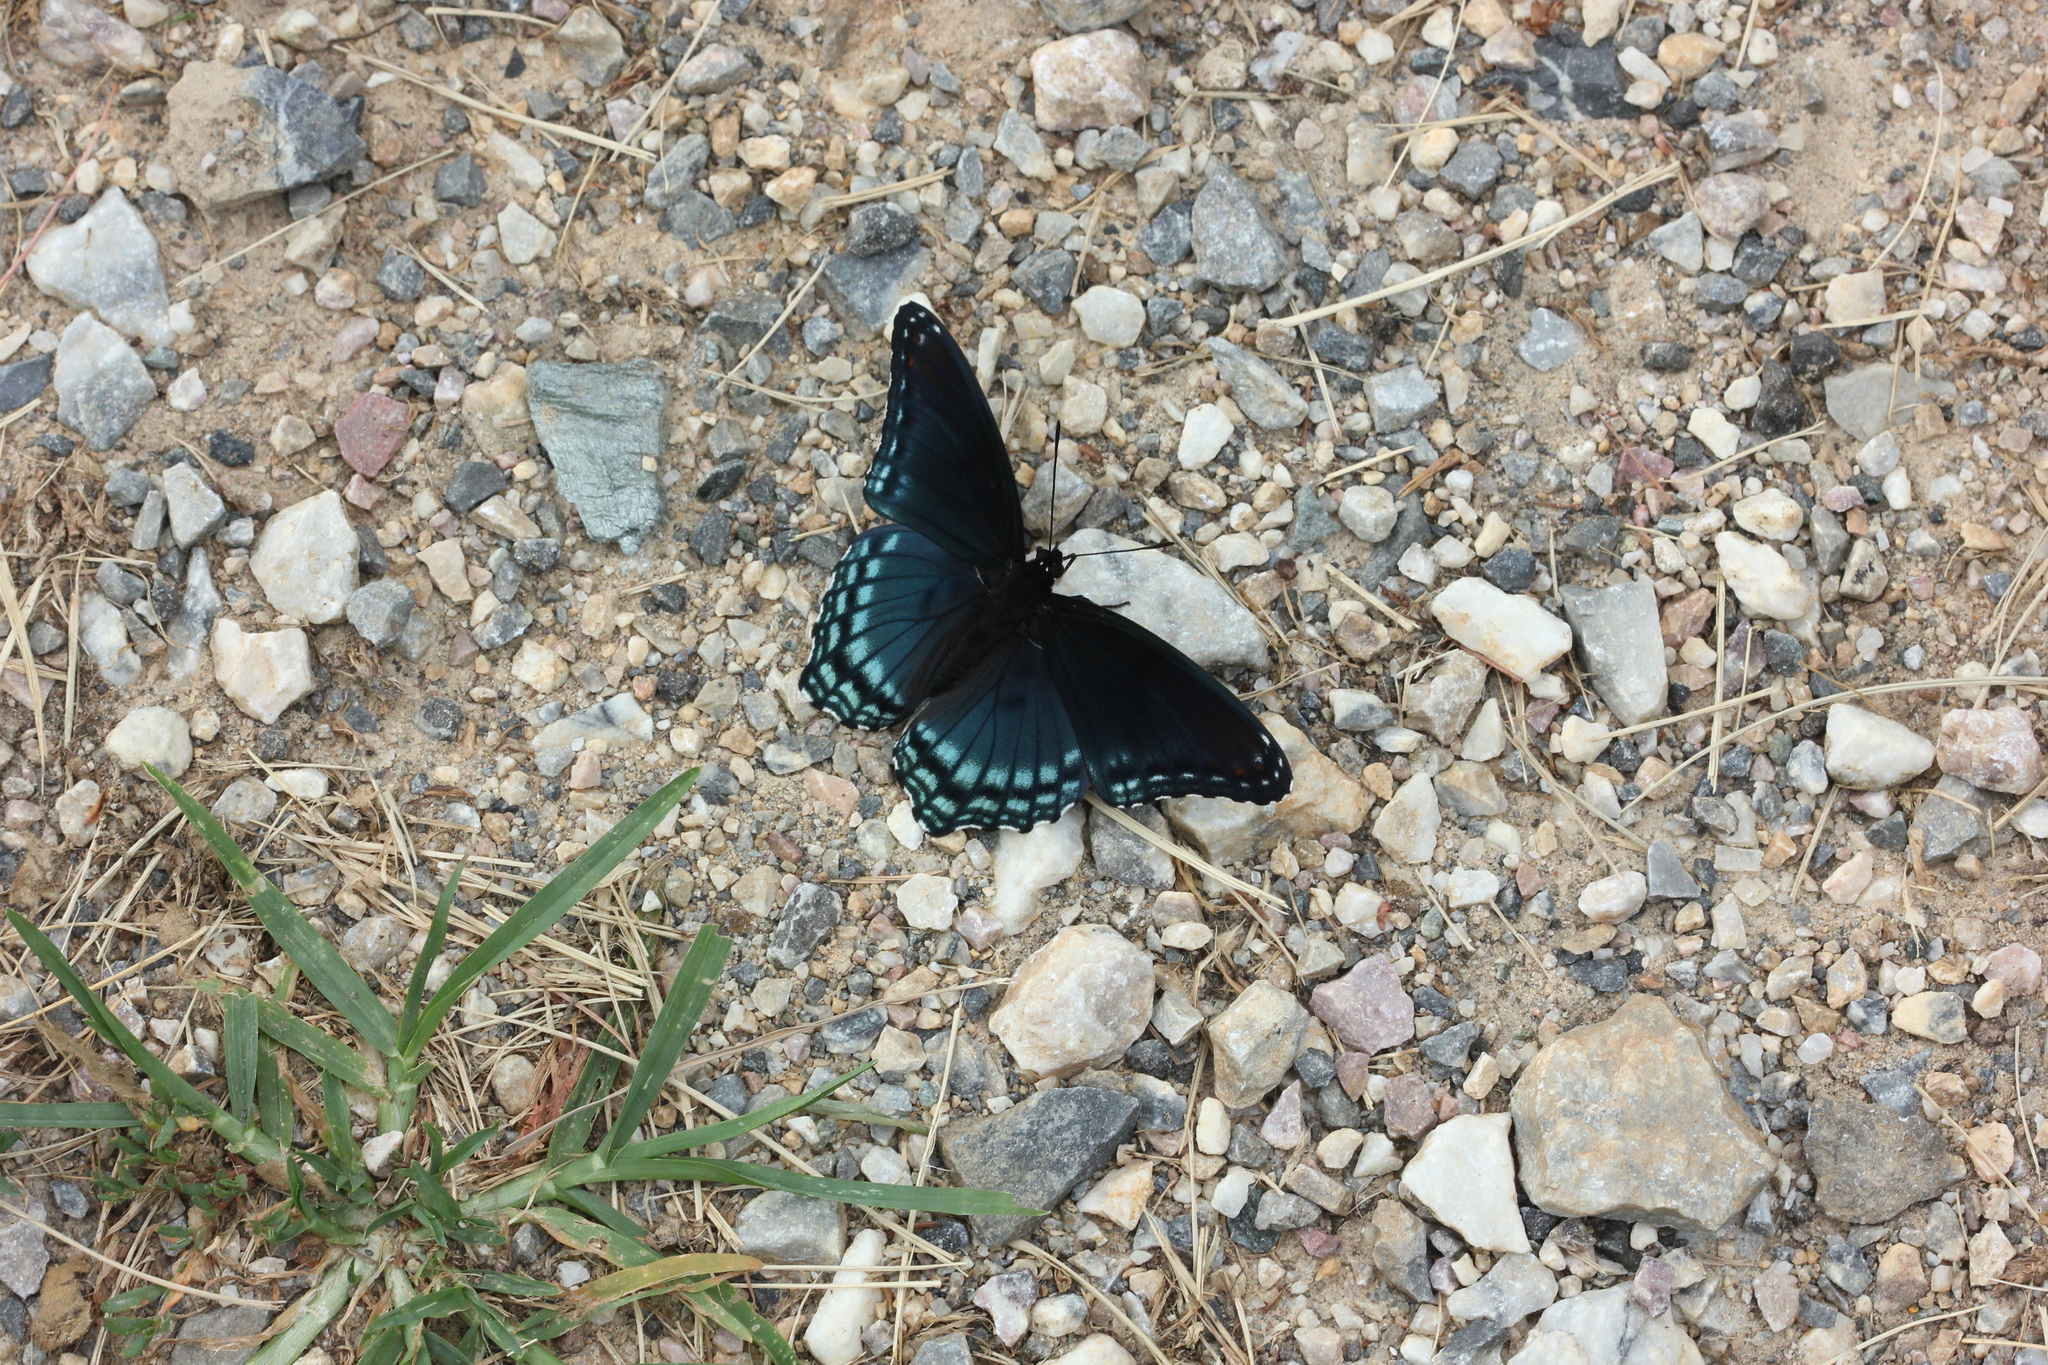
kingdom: Animalia
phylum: Arthropoda
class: Insecta
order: Lepidoptera
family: Nymphalidae
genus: Limenitis
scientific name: Limenitis astyanax
